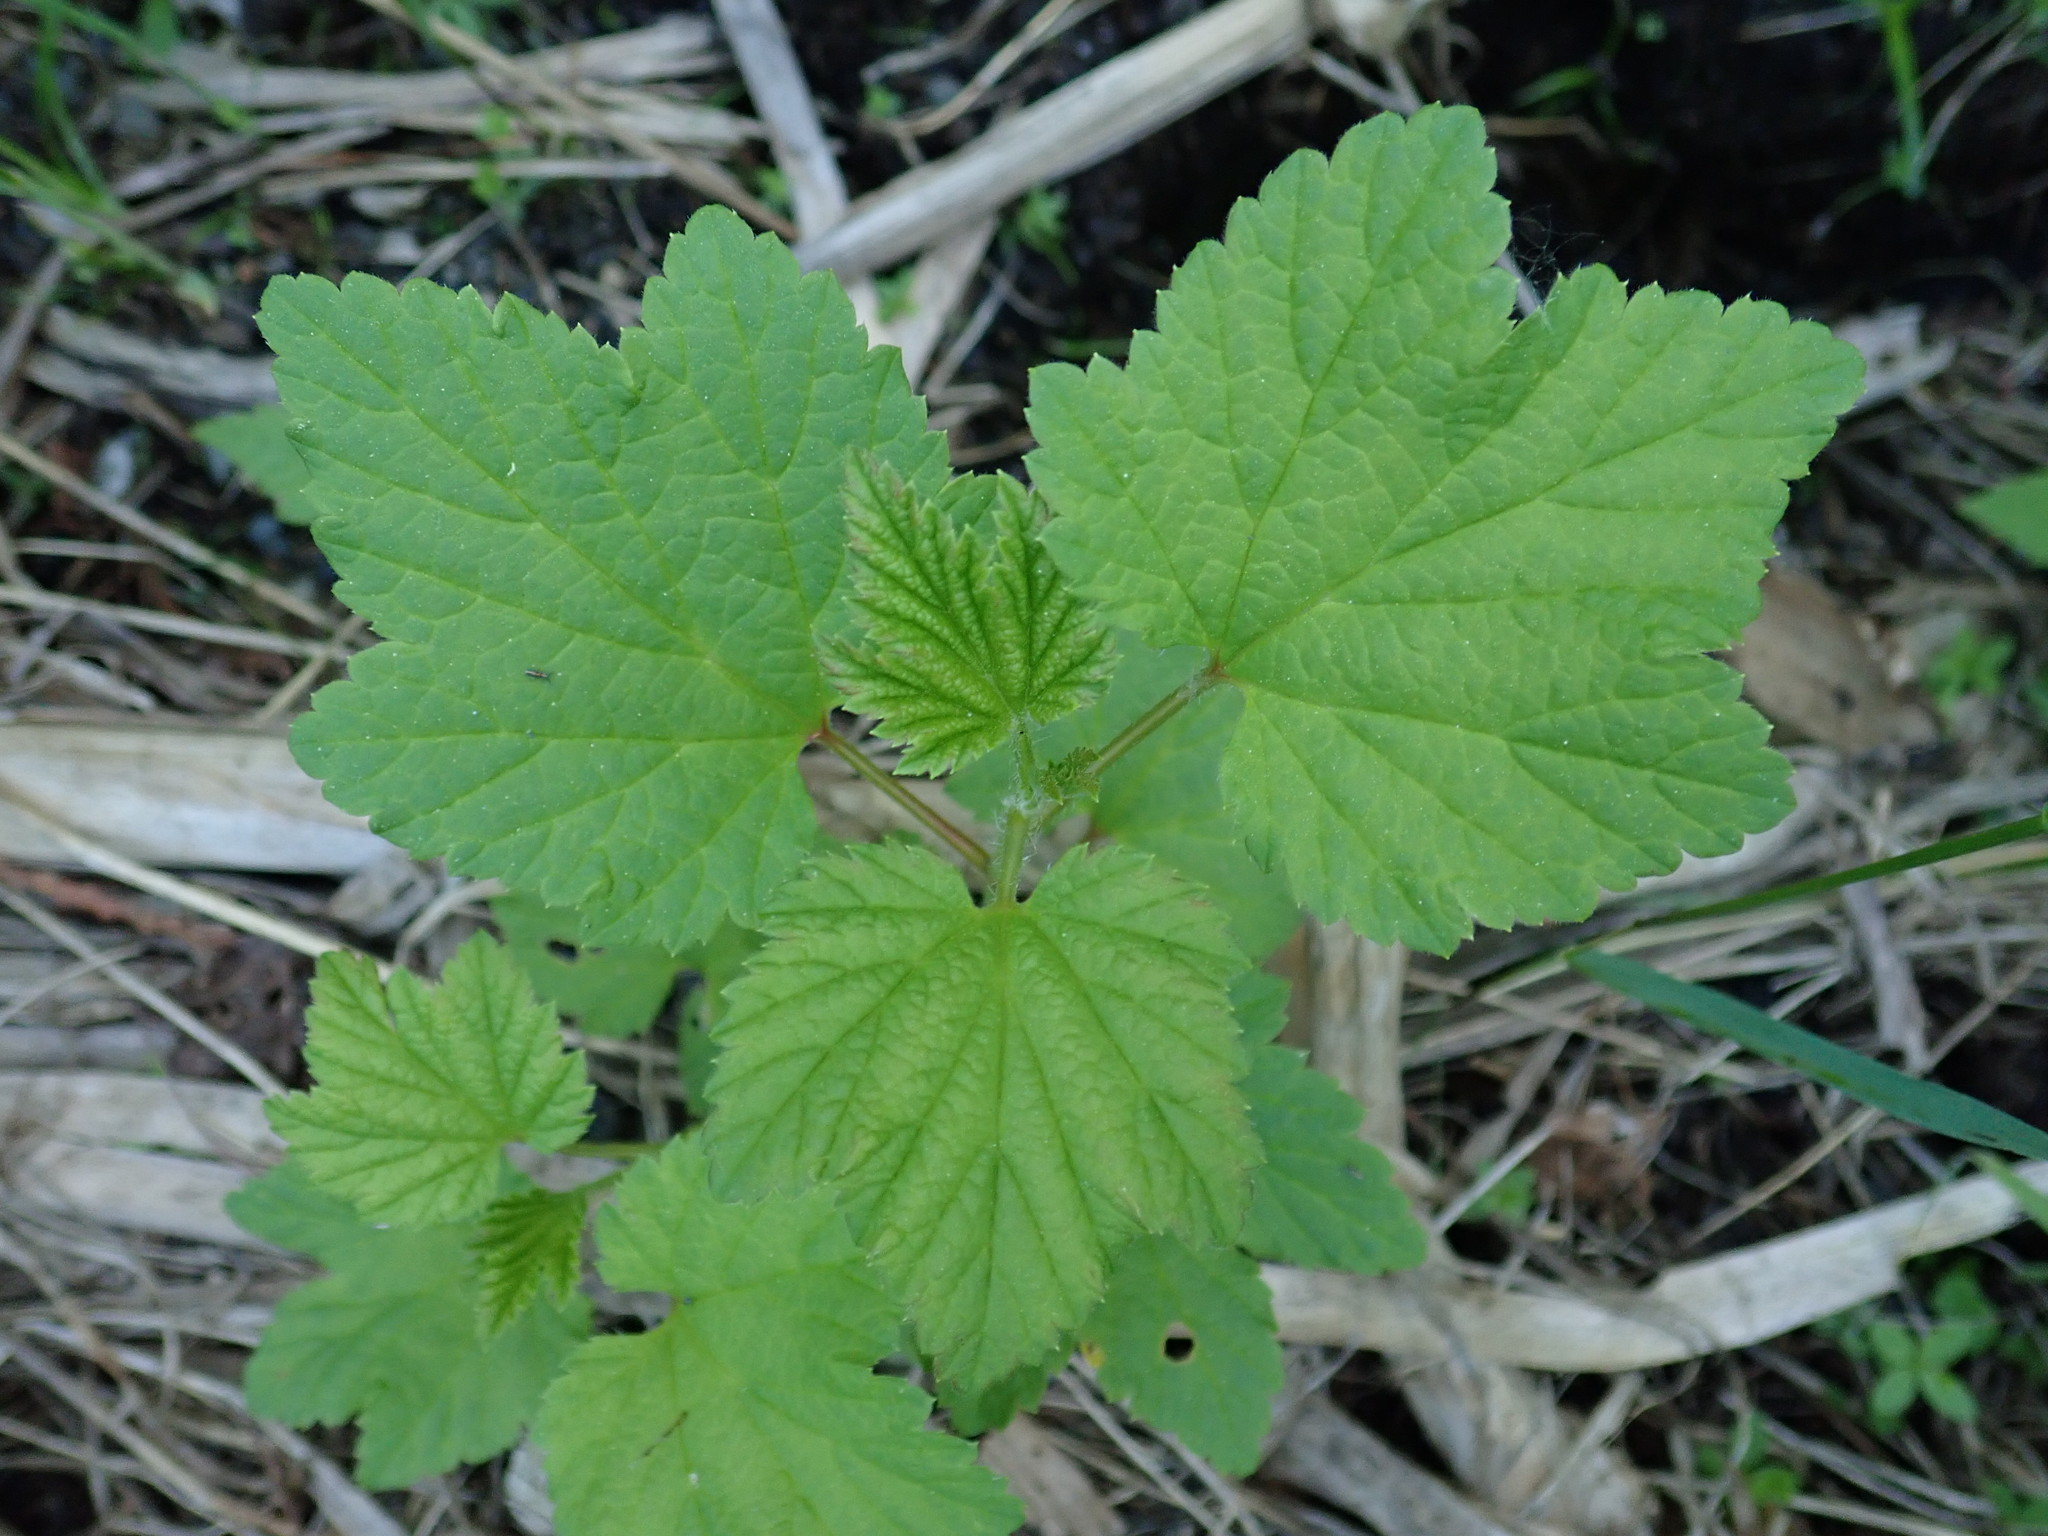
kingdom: Plantae
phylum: Tracheophyta
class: Magnoliopsida
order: Saxifragales
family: Grossulariaceae
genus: Ribes
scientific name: Ribes triste
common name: Swamp red currant
